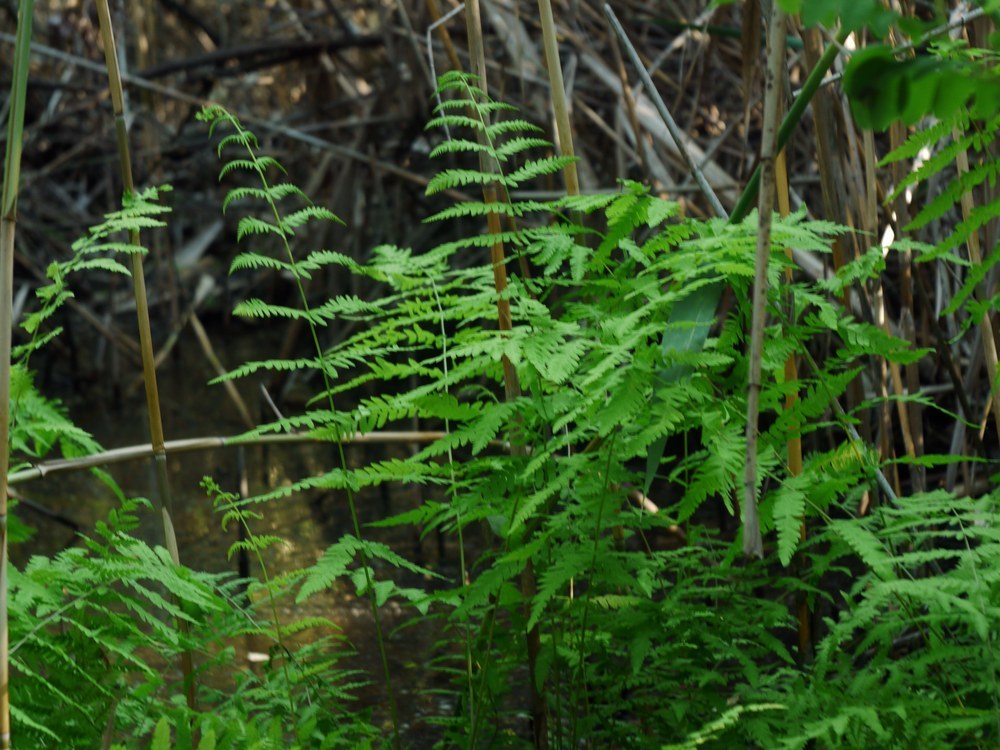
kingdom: Plantae
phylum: Tracheophyta
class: Polypodiopsida
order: Polypodiales
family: Thelypteridaceae
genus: Thelypteris
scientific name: Thelypteris palustris
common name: Marsh fern
